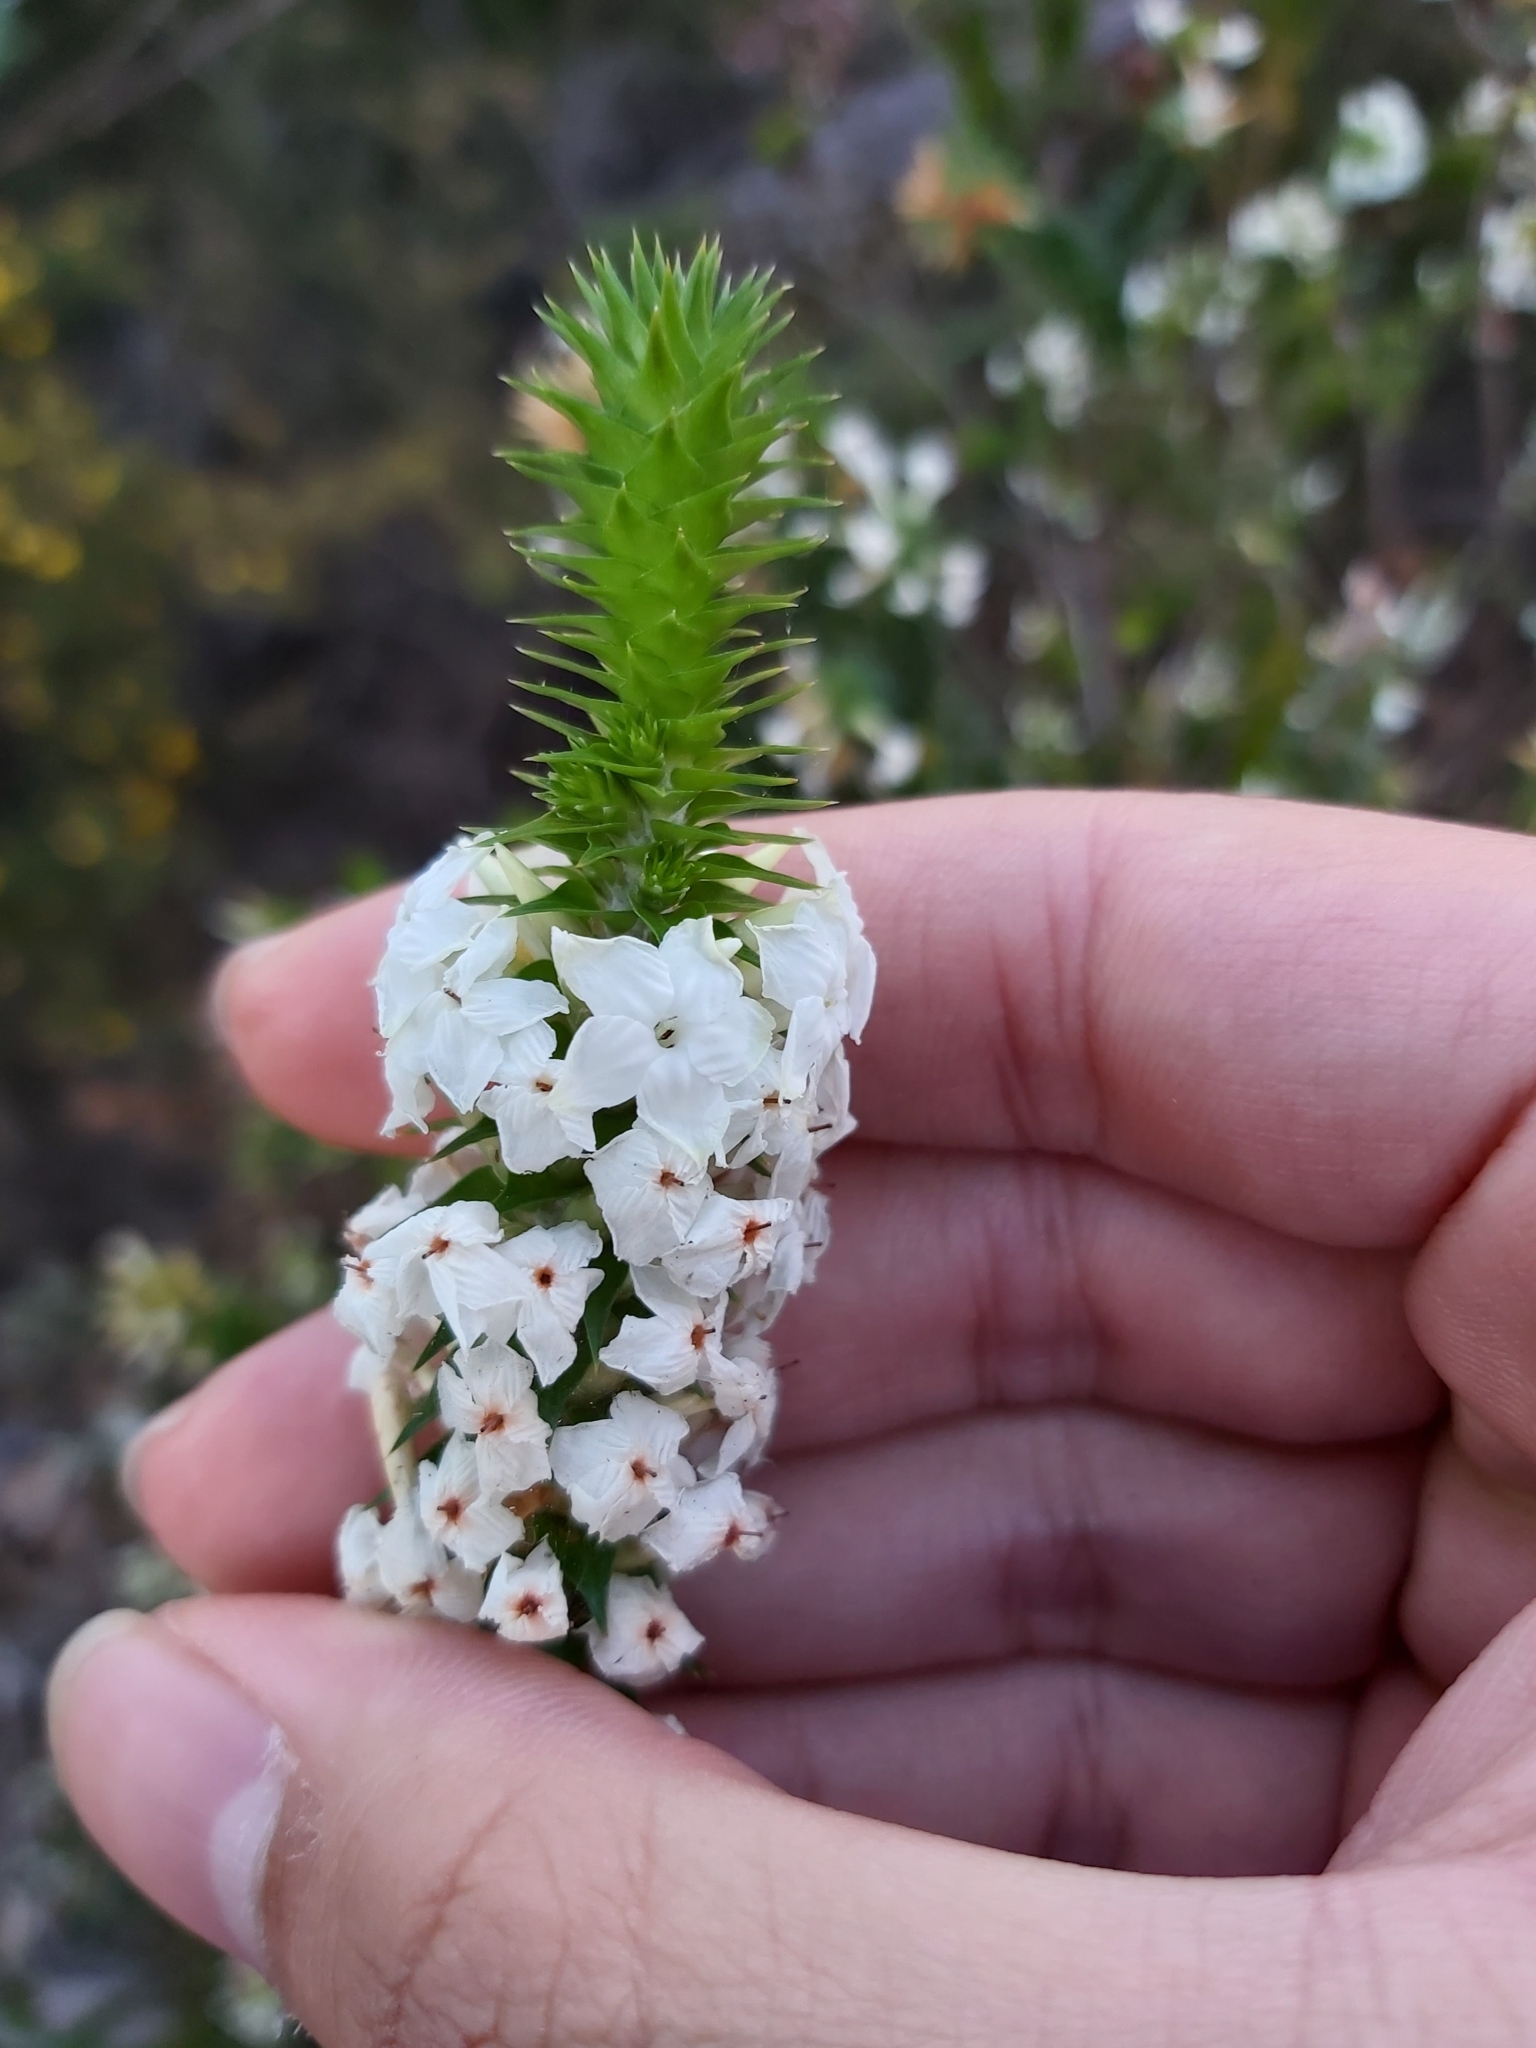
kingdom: Plantae
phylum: Tracheophyta
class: Magnoliopsida
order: Ericales
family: Ericaceae
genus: Woollsia
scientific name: Woollsia pungens
